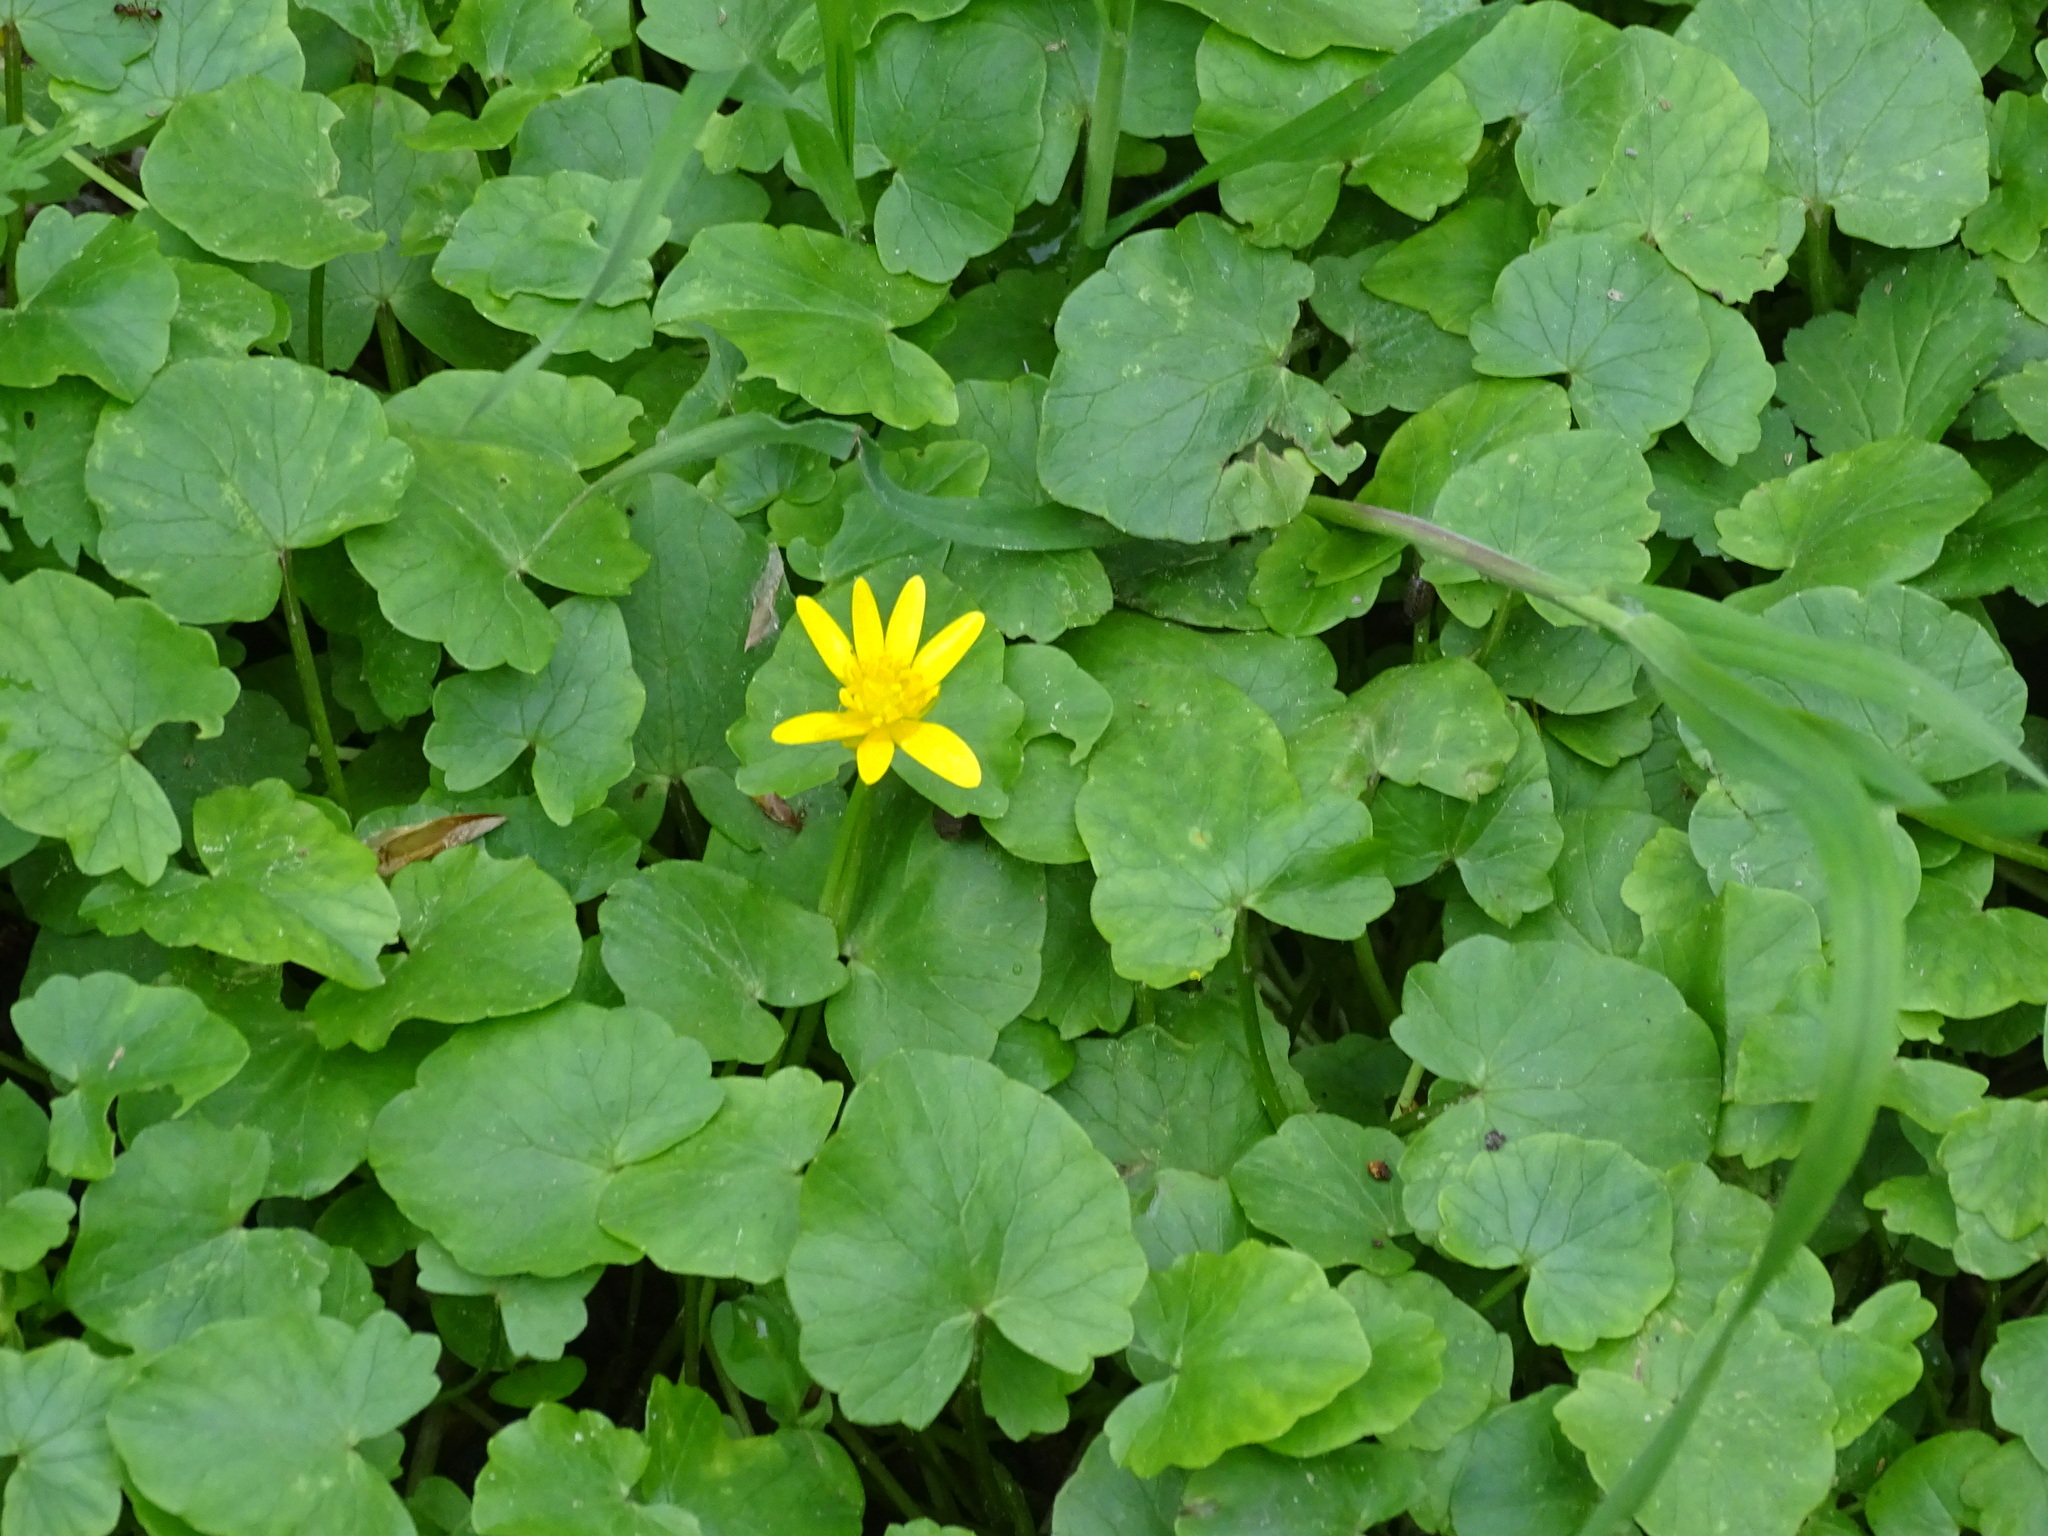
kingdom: Plantae
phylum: Tracheophyta
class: Magnoliopsida
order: Ranunculales
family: Ranunculaceae
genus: Ficaria
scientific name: Ficaria verna
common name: Lesser celandine
